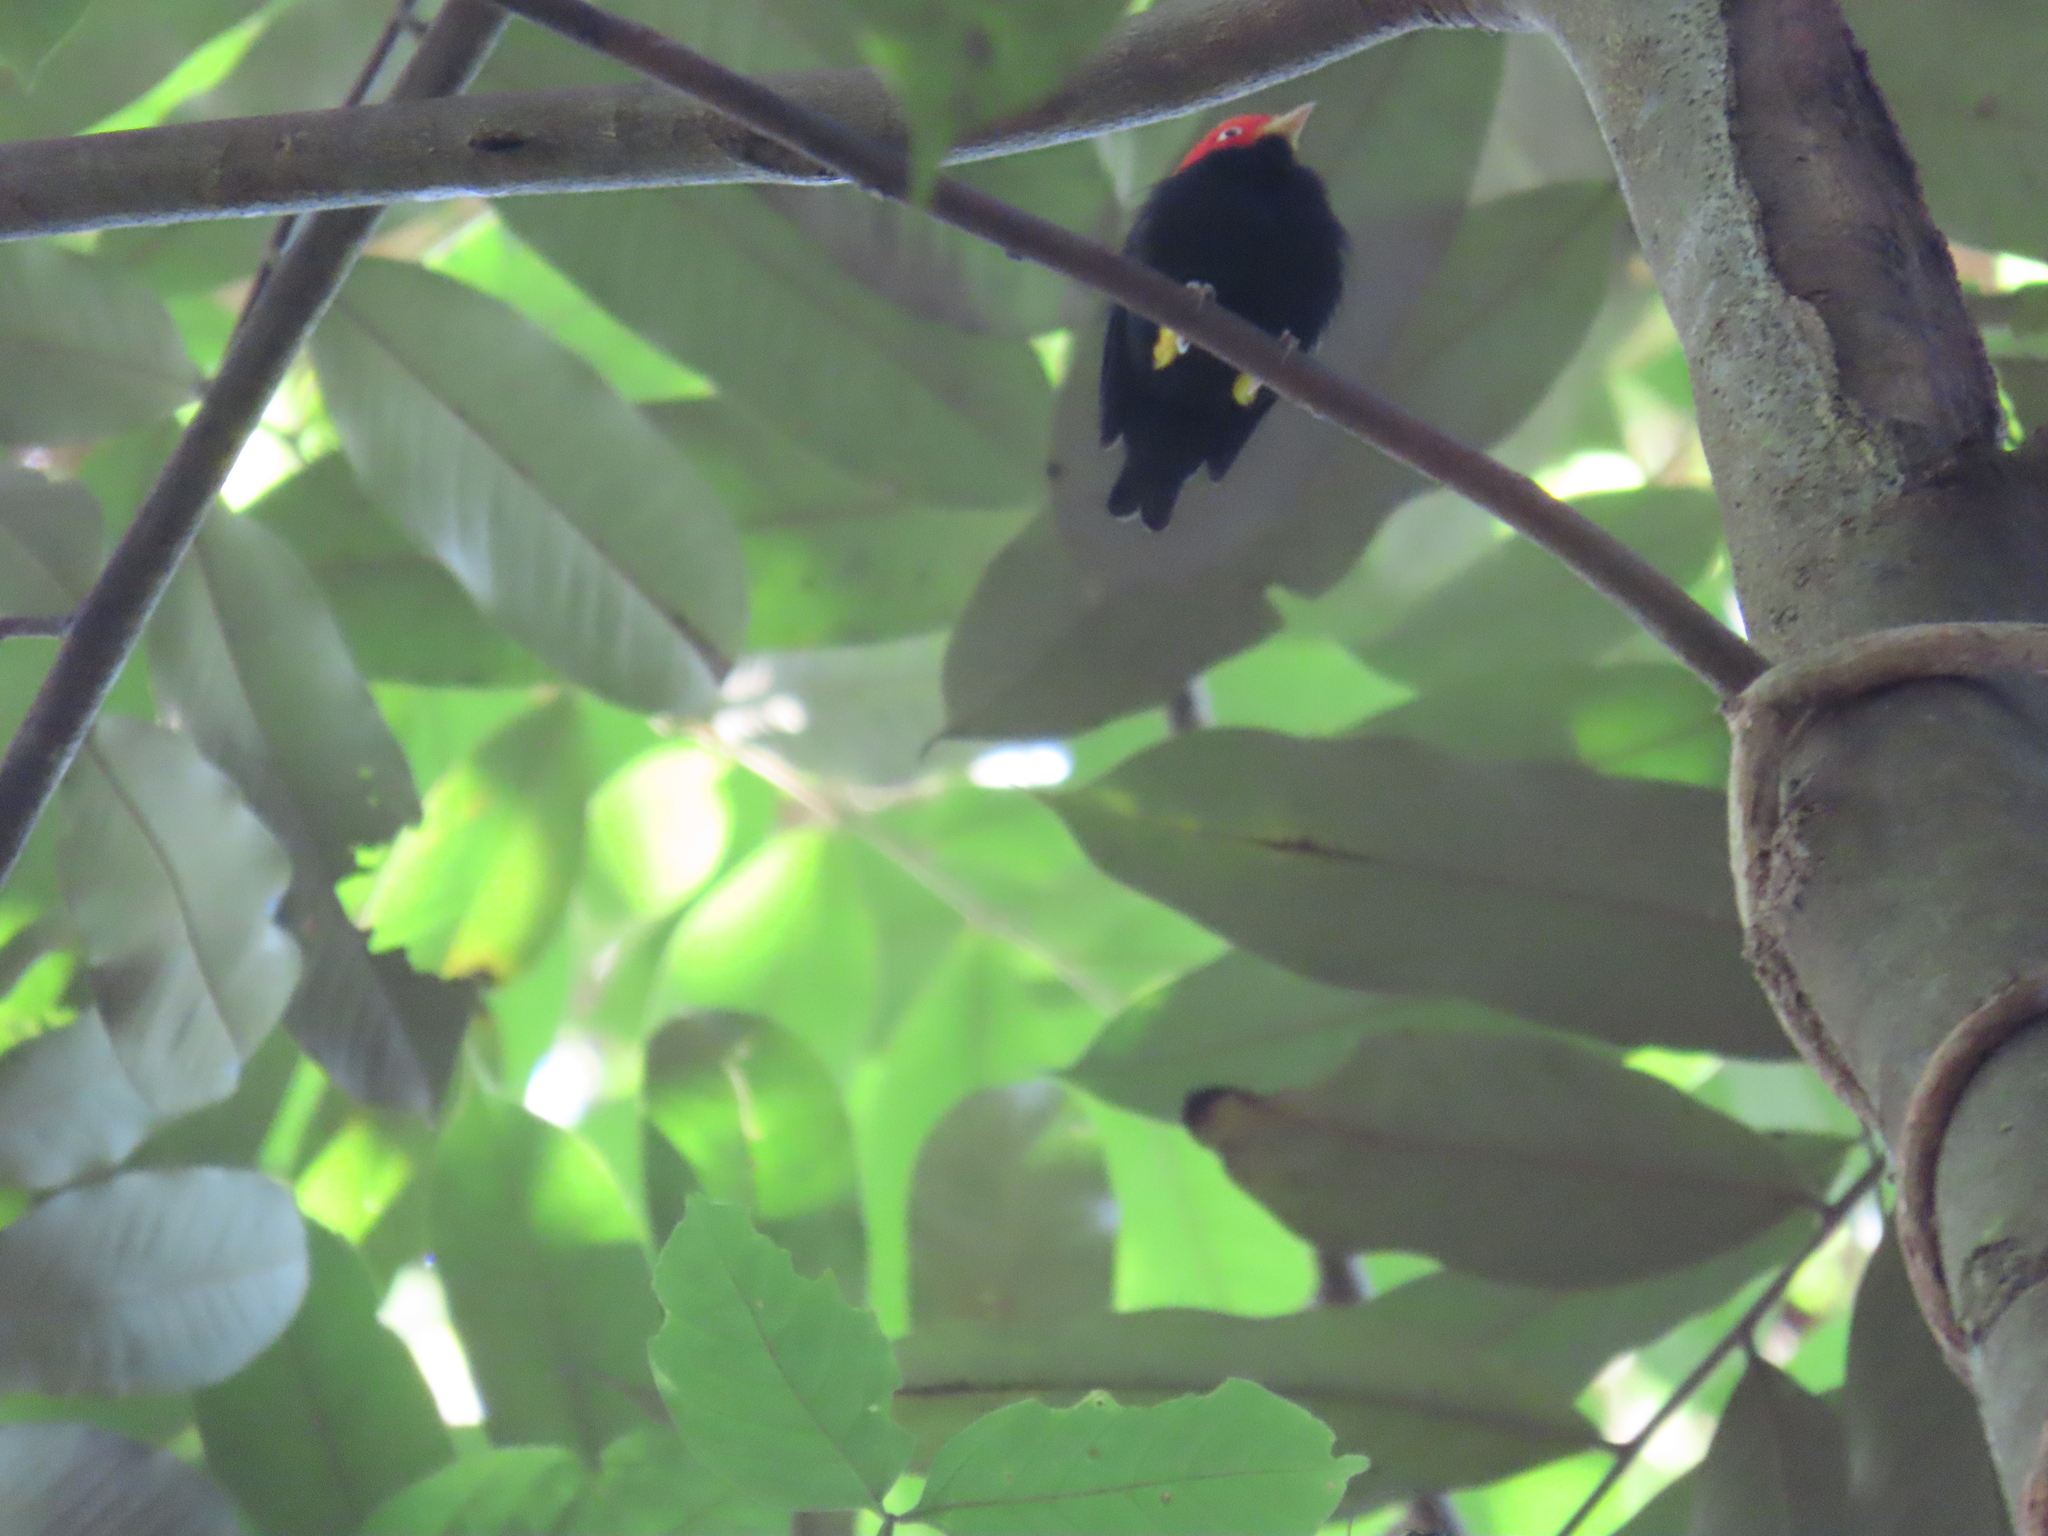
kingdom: Animalia
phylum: Chordata
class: Aves
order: Passeriformes
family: Pipridae
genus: Pipra
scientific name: Pipra mentalis
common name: Red-capped manakin
